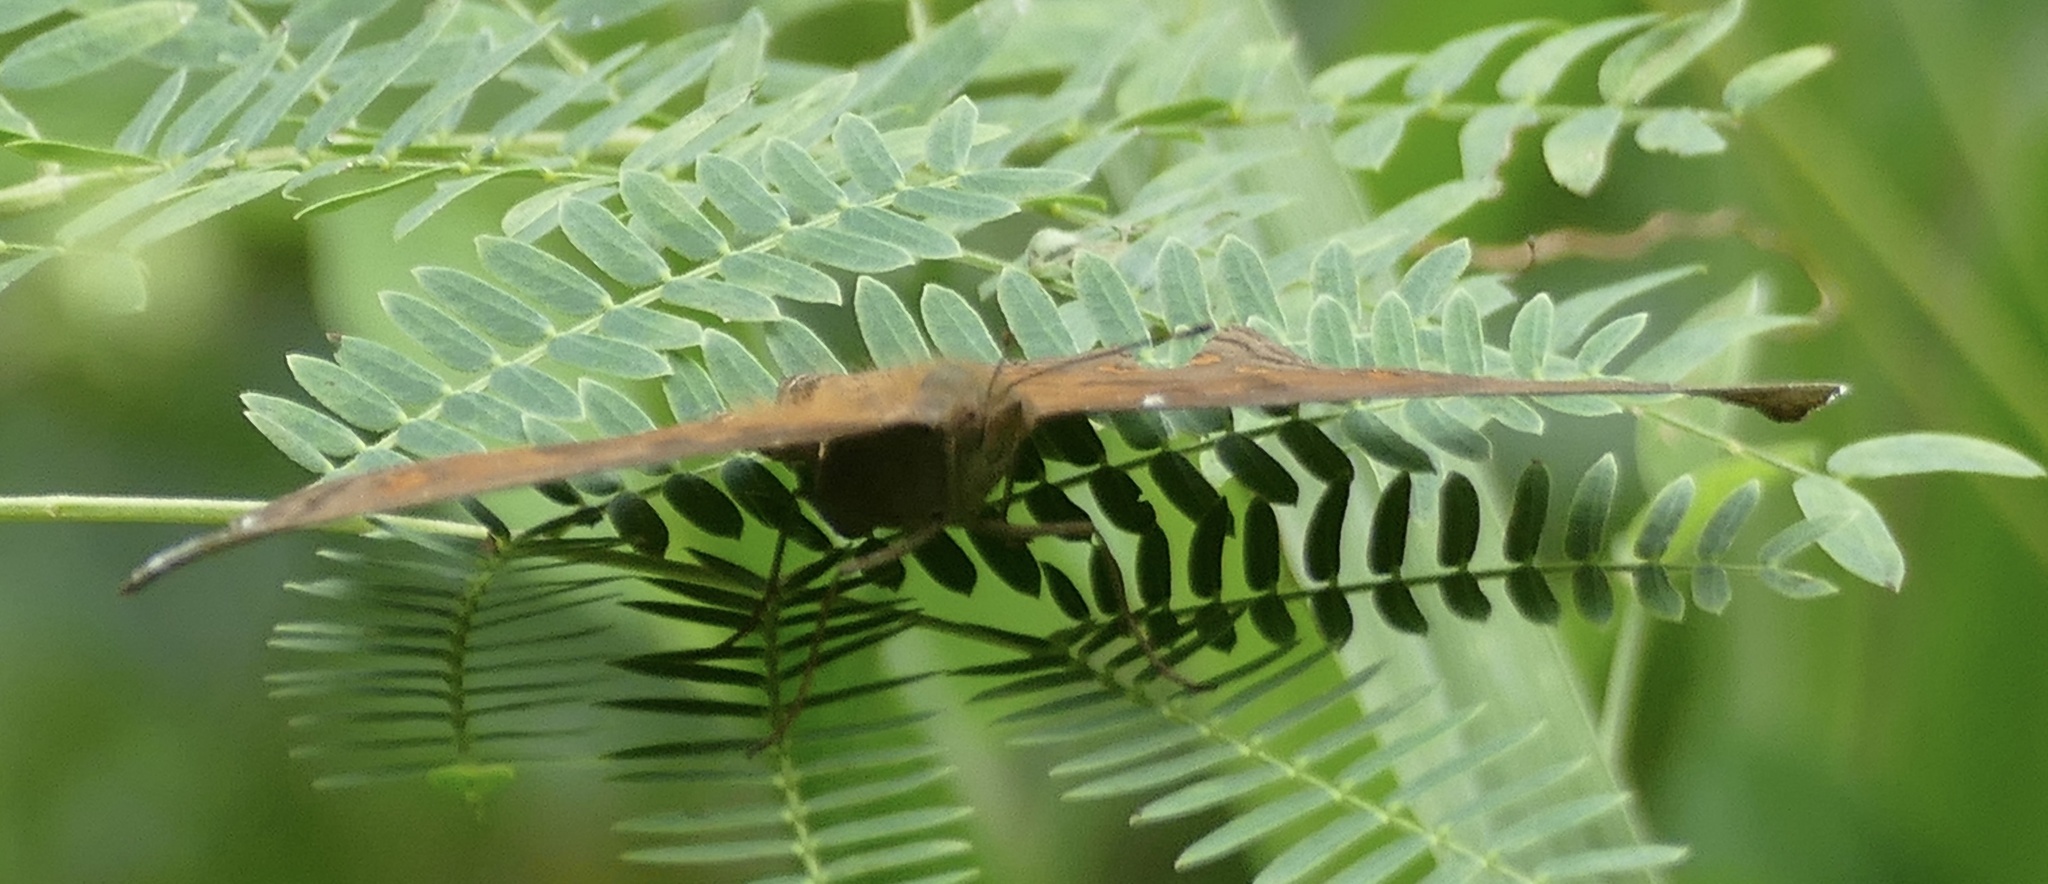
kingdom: Animalia
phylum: Arthropoda
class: Insecta
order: Lepidoptera
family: Nymphalidae
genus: Junonia
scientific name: Junonia
